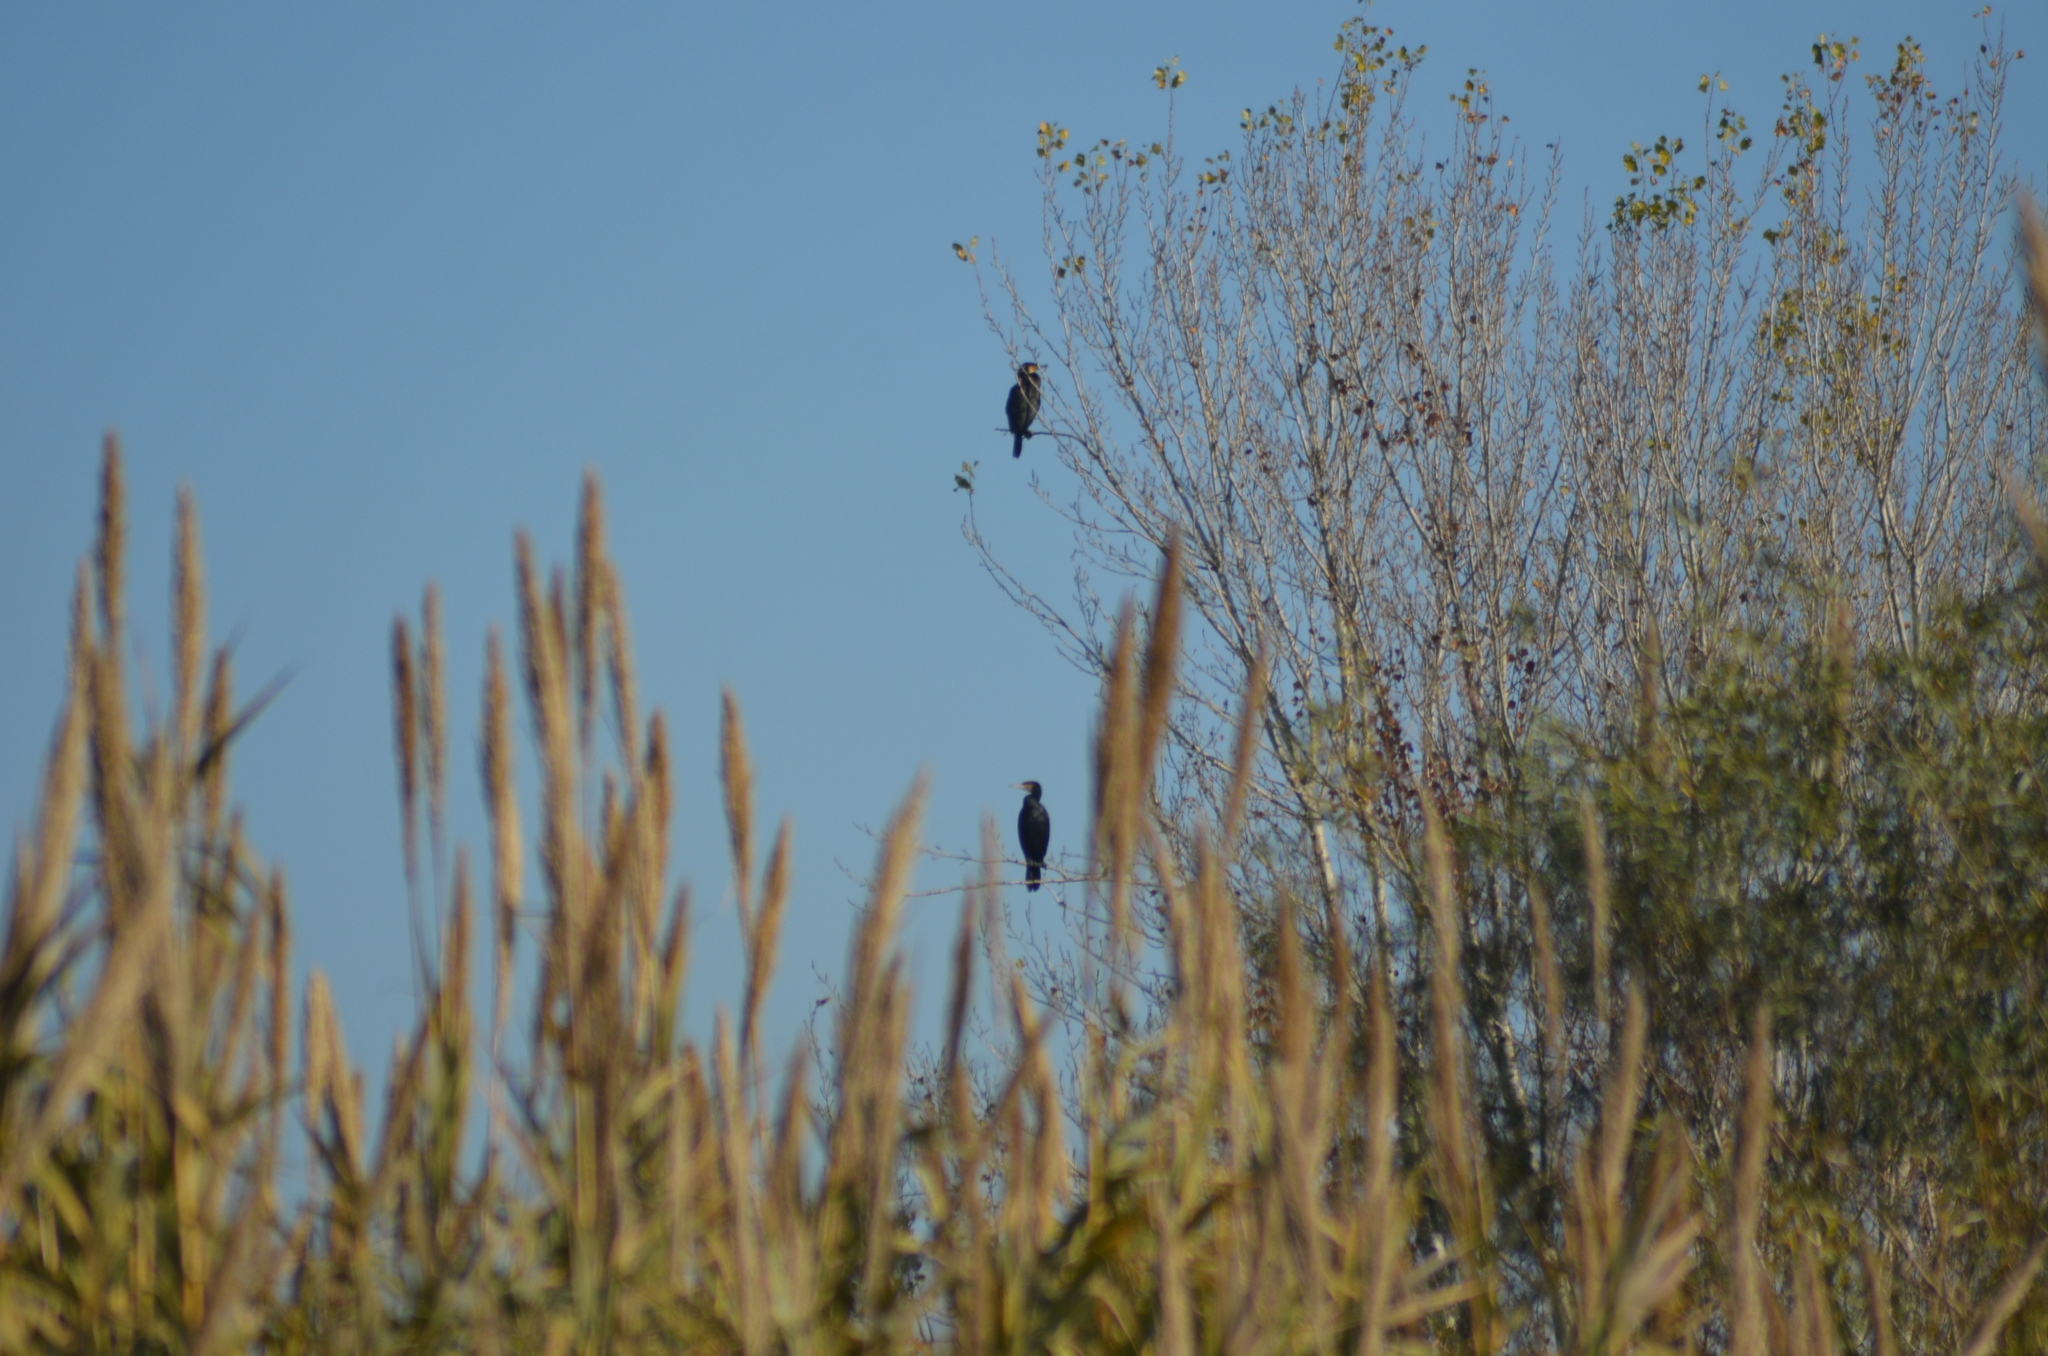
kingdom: Animalia
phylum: Chordata
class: Aves
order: Suliformes
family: Phalacrocoracidae
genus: Phalacrocorax
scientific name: Phalacrocorax carbo
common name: Great cormorant
